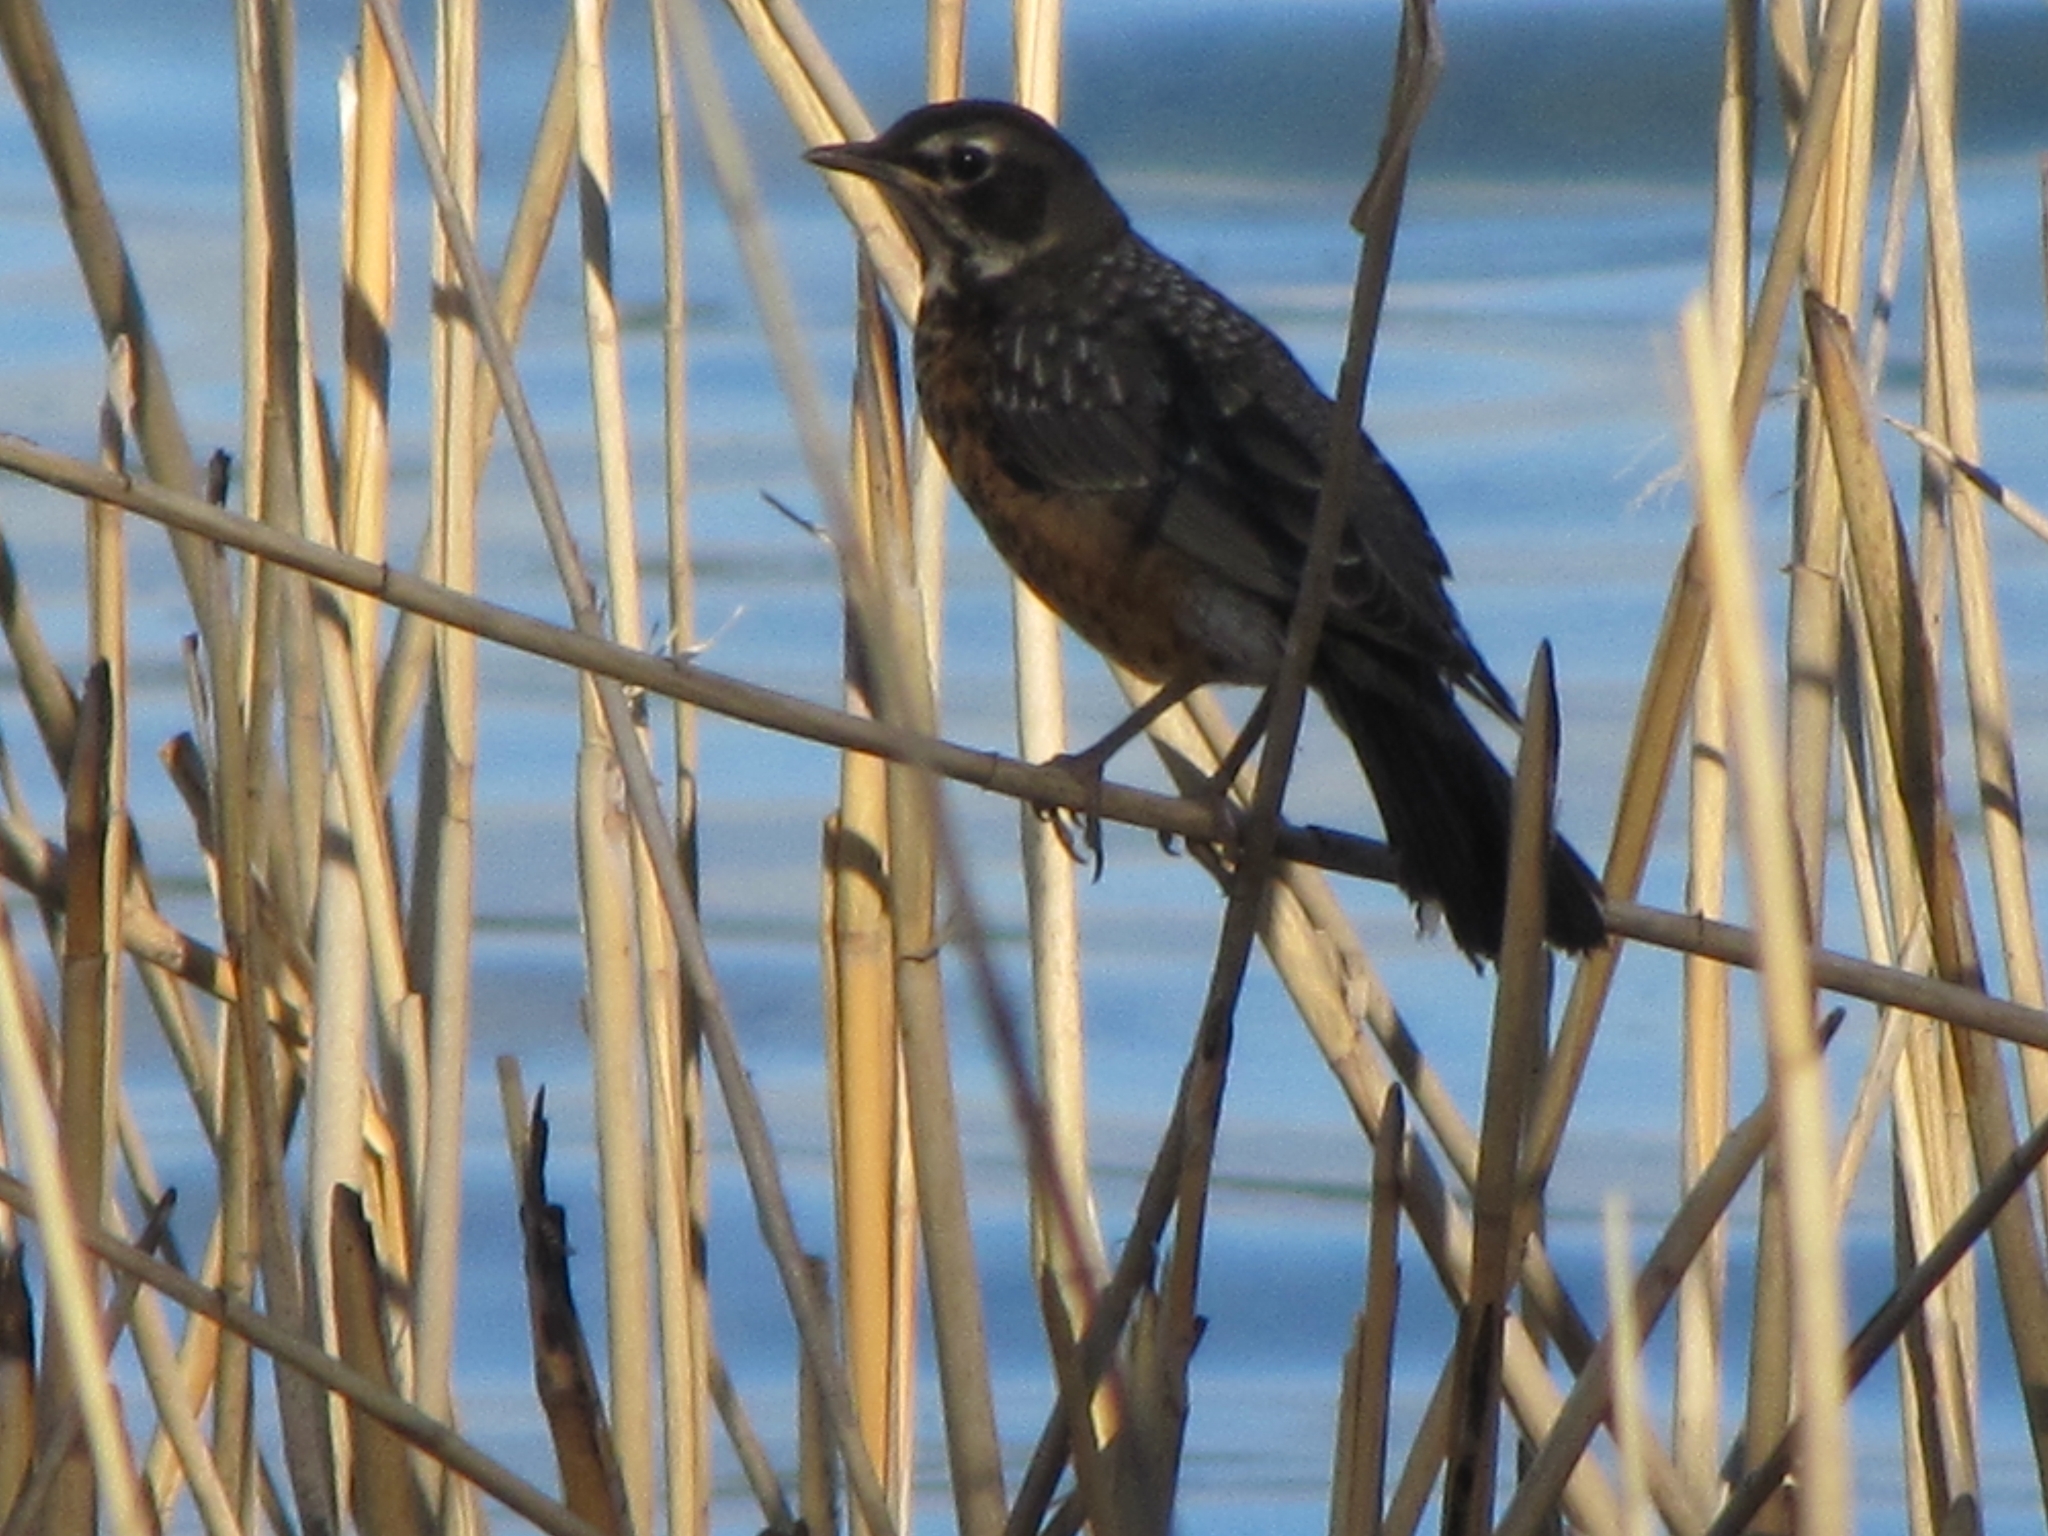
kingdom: Animalia
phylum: Chordata
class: Aves
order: Passeriformes
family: Turdidae
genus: Turdus
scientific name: Turdus migratorius
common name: American robin
